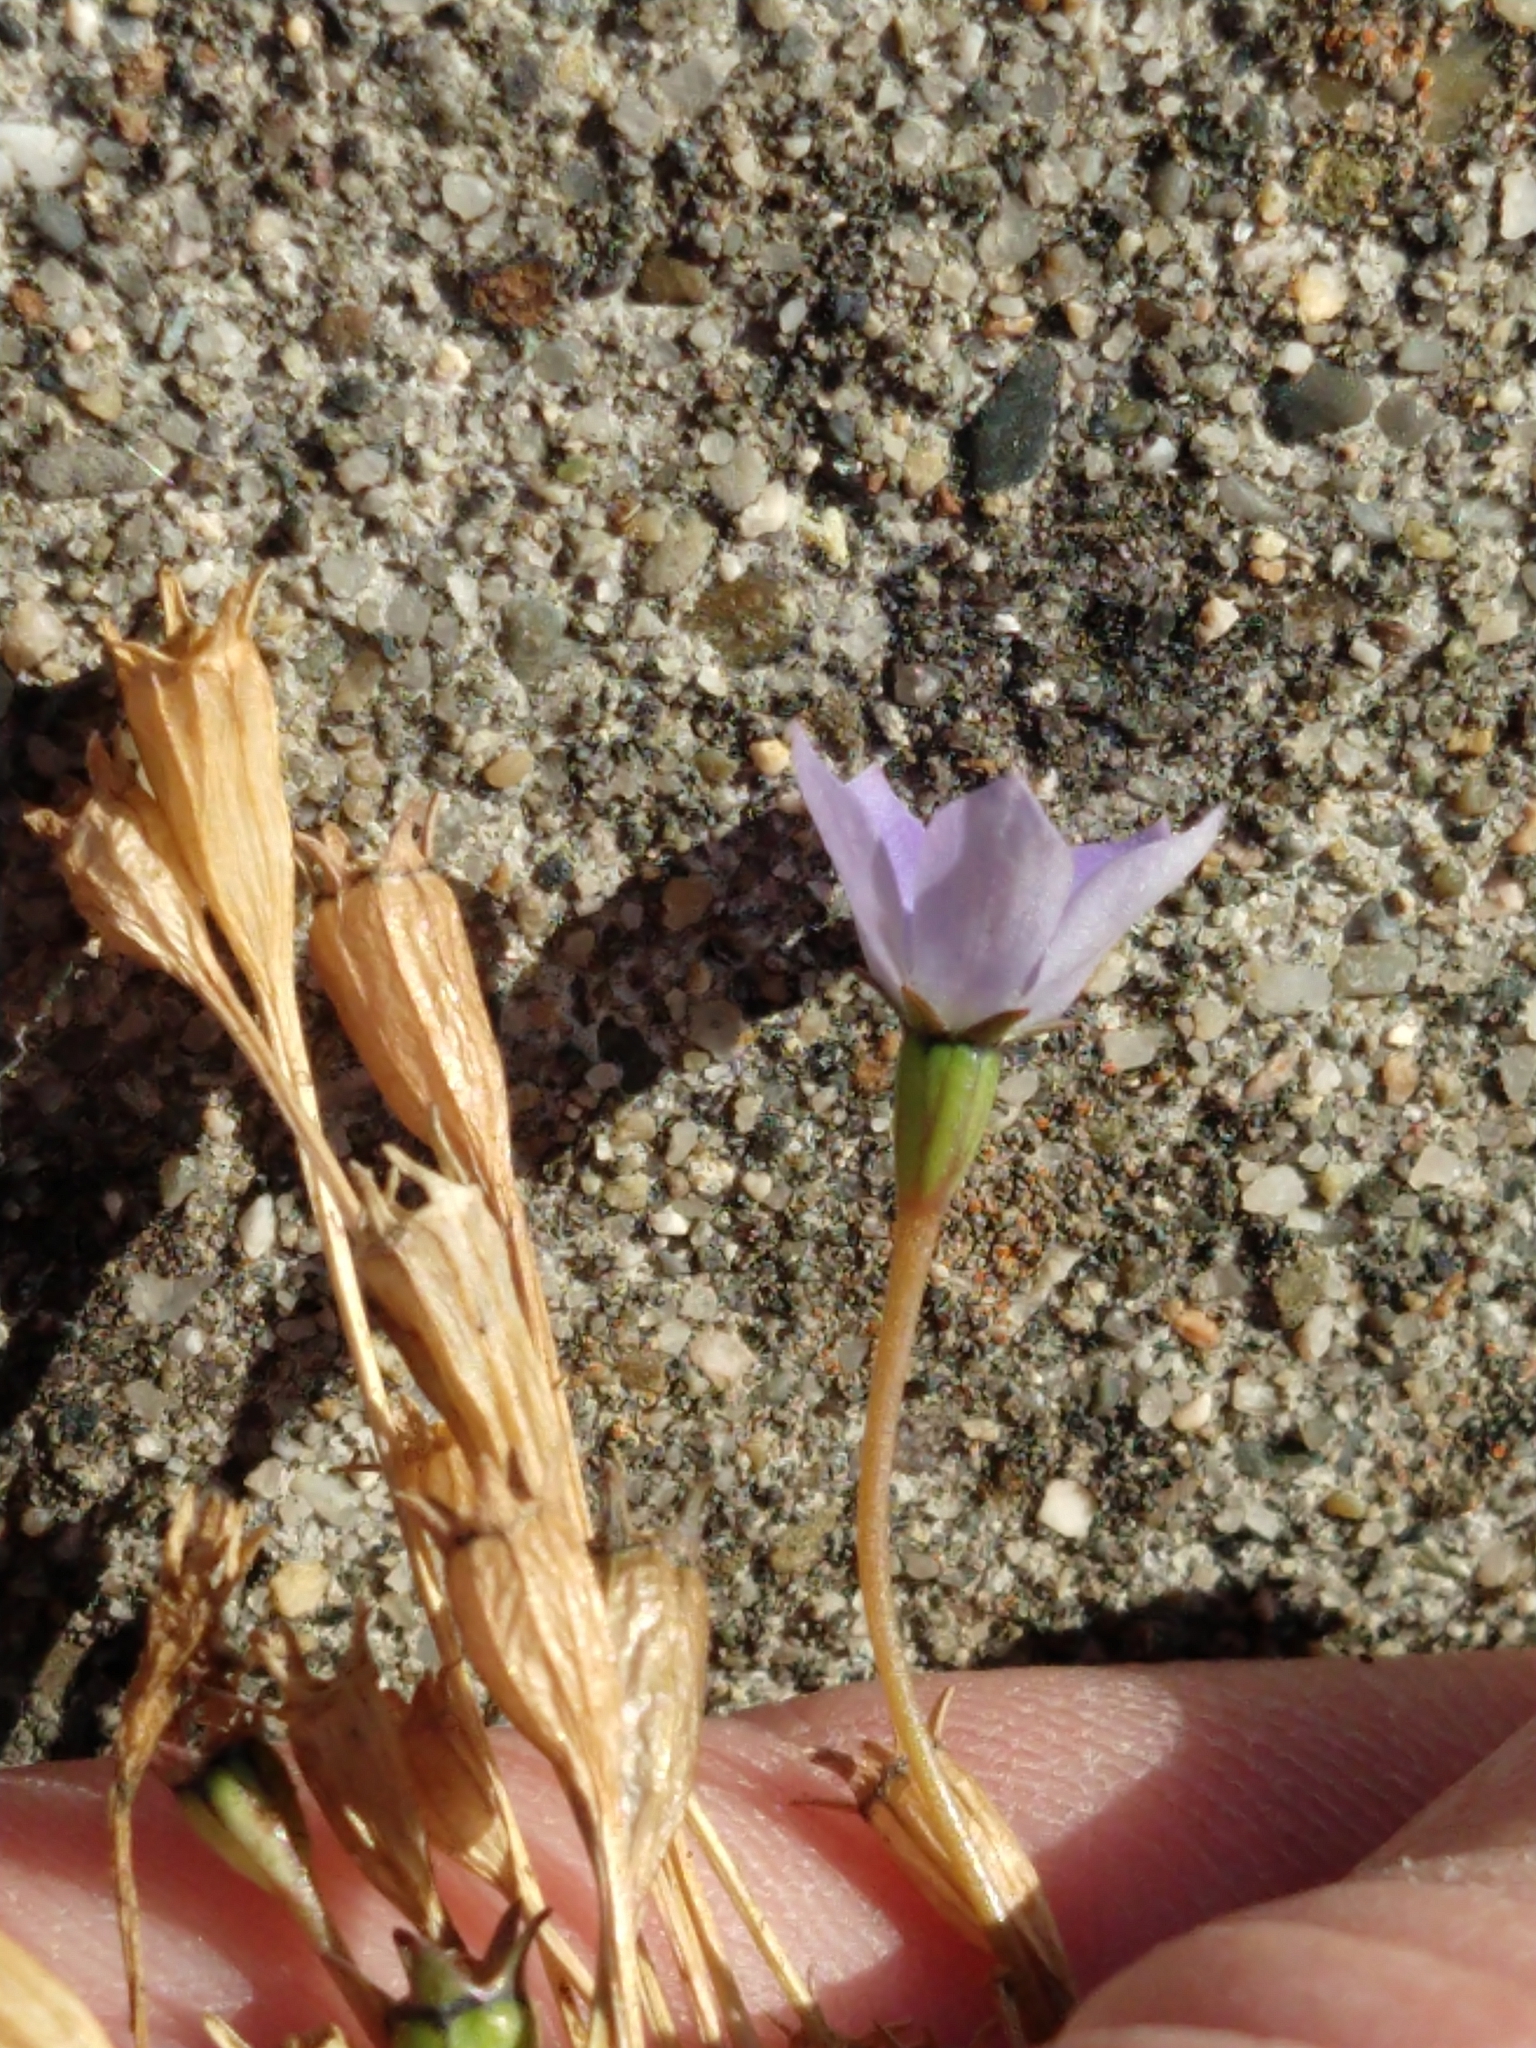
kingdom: Plantae
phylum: Tracheophyta
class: Magnoliopsida
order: Asterales
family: Campanulaceae
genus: Wahlenbergia
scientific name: Wahlenbergia marginata
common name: Southern rockbell
